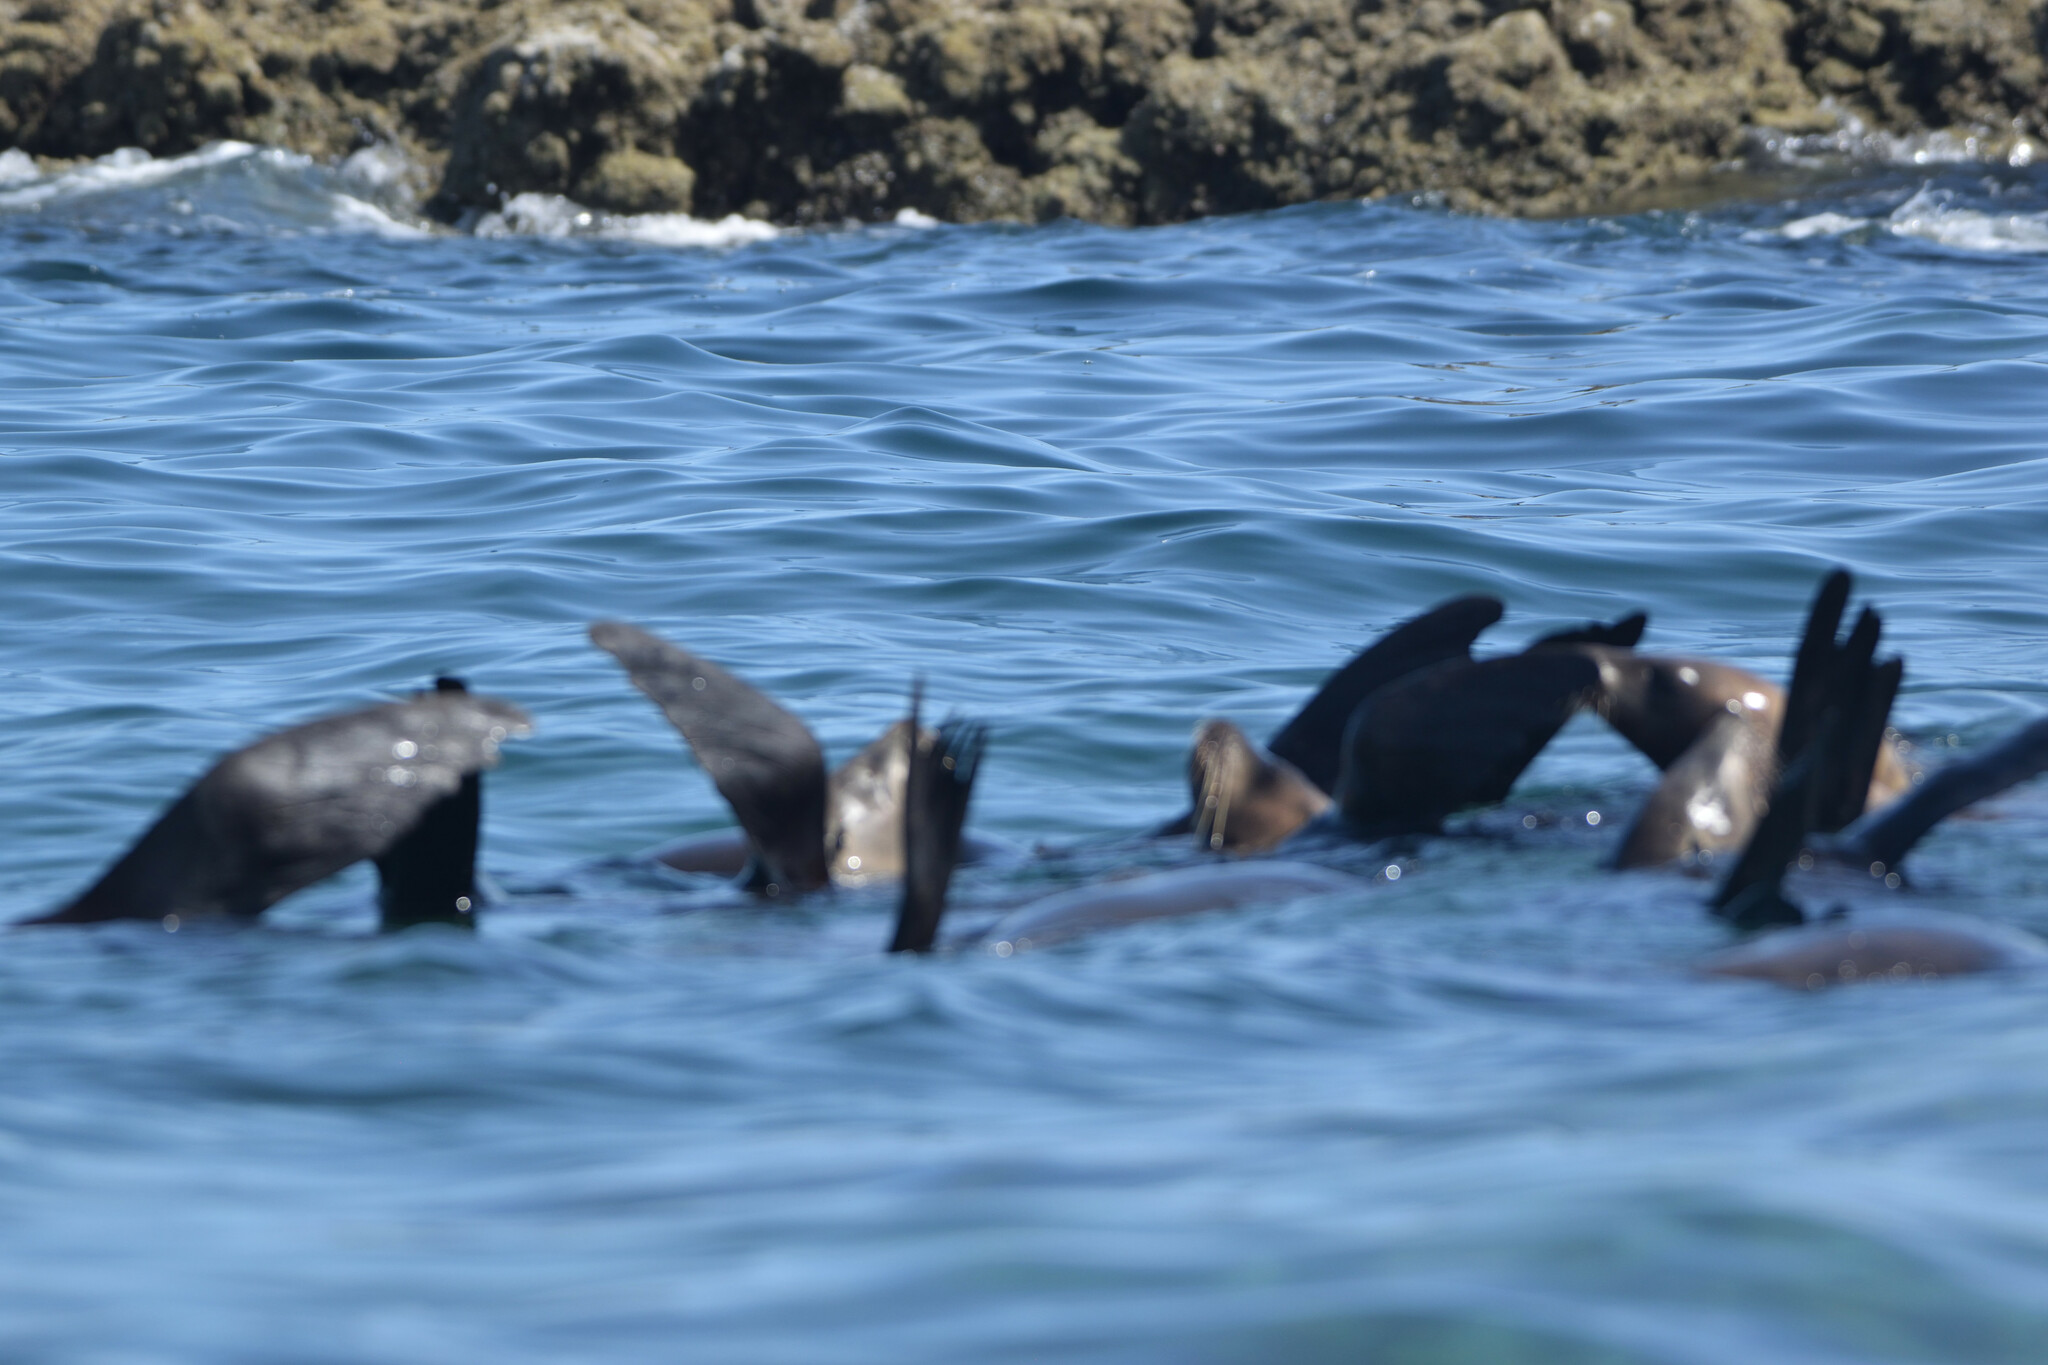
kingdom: Animalia
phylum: Chordata
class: Mammalia
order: Carnivora
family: Otariidae
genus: Zalophus
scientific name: Zalophus californianus
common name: California sea lion
